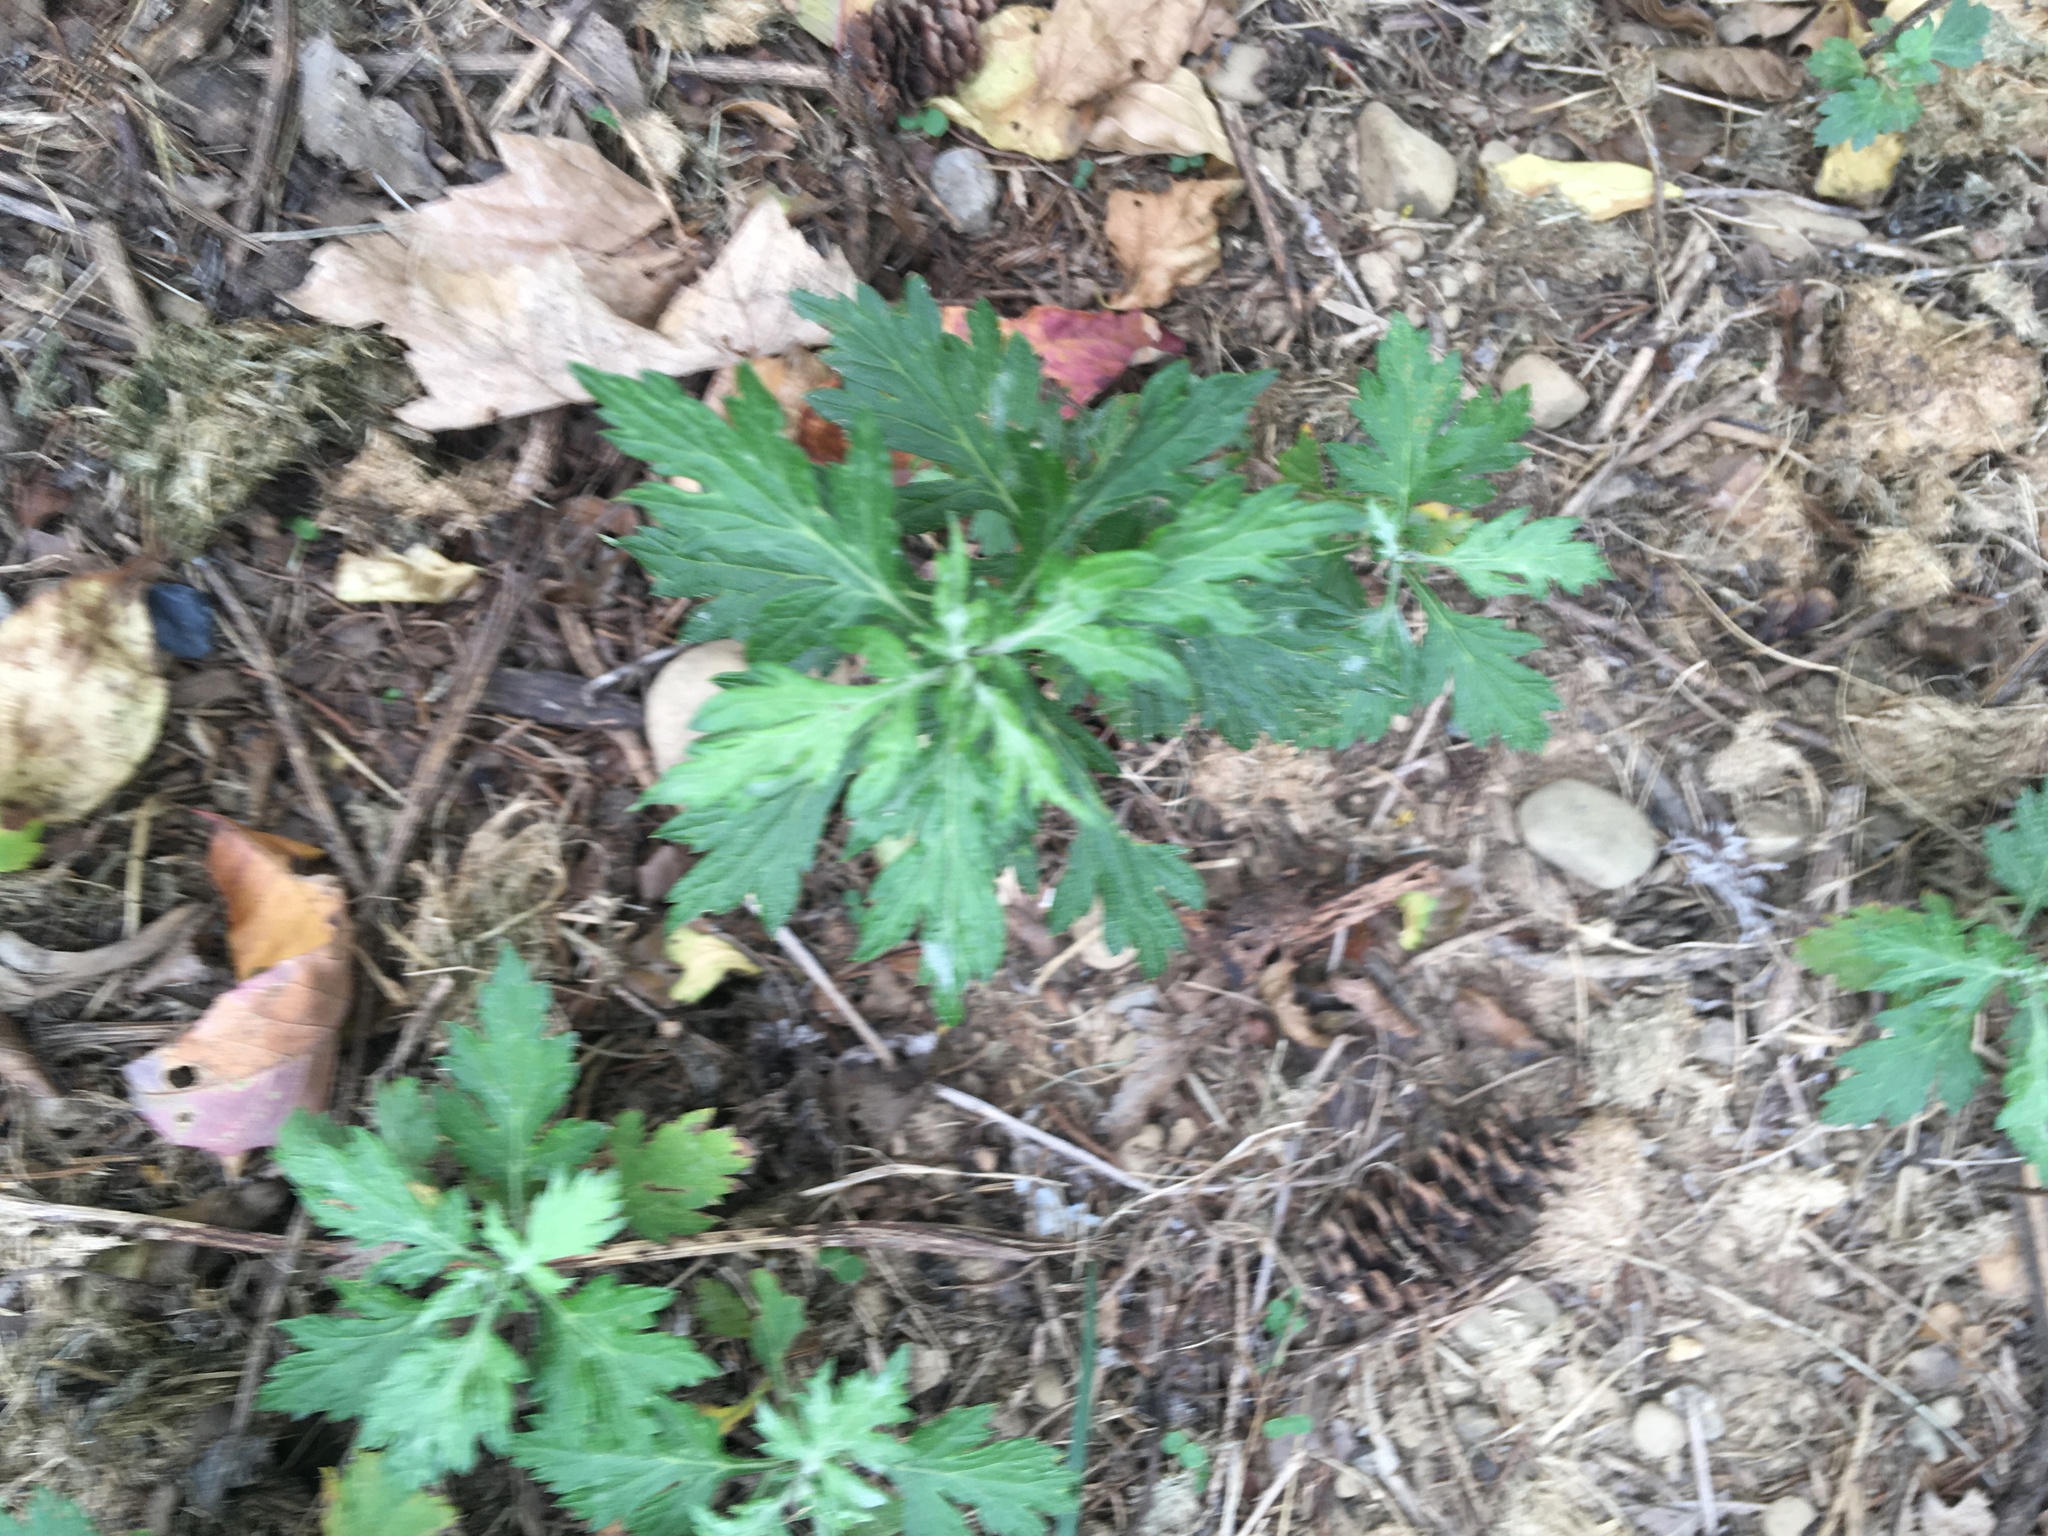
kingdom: Plantae
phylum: Tracheophyta
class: Magnoliopsida
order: Asterales
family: Asteraceae
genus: Artemisia
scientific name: Artemisia vulgaris
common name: Mugwort
